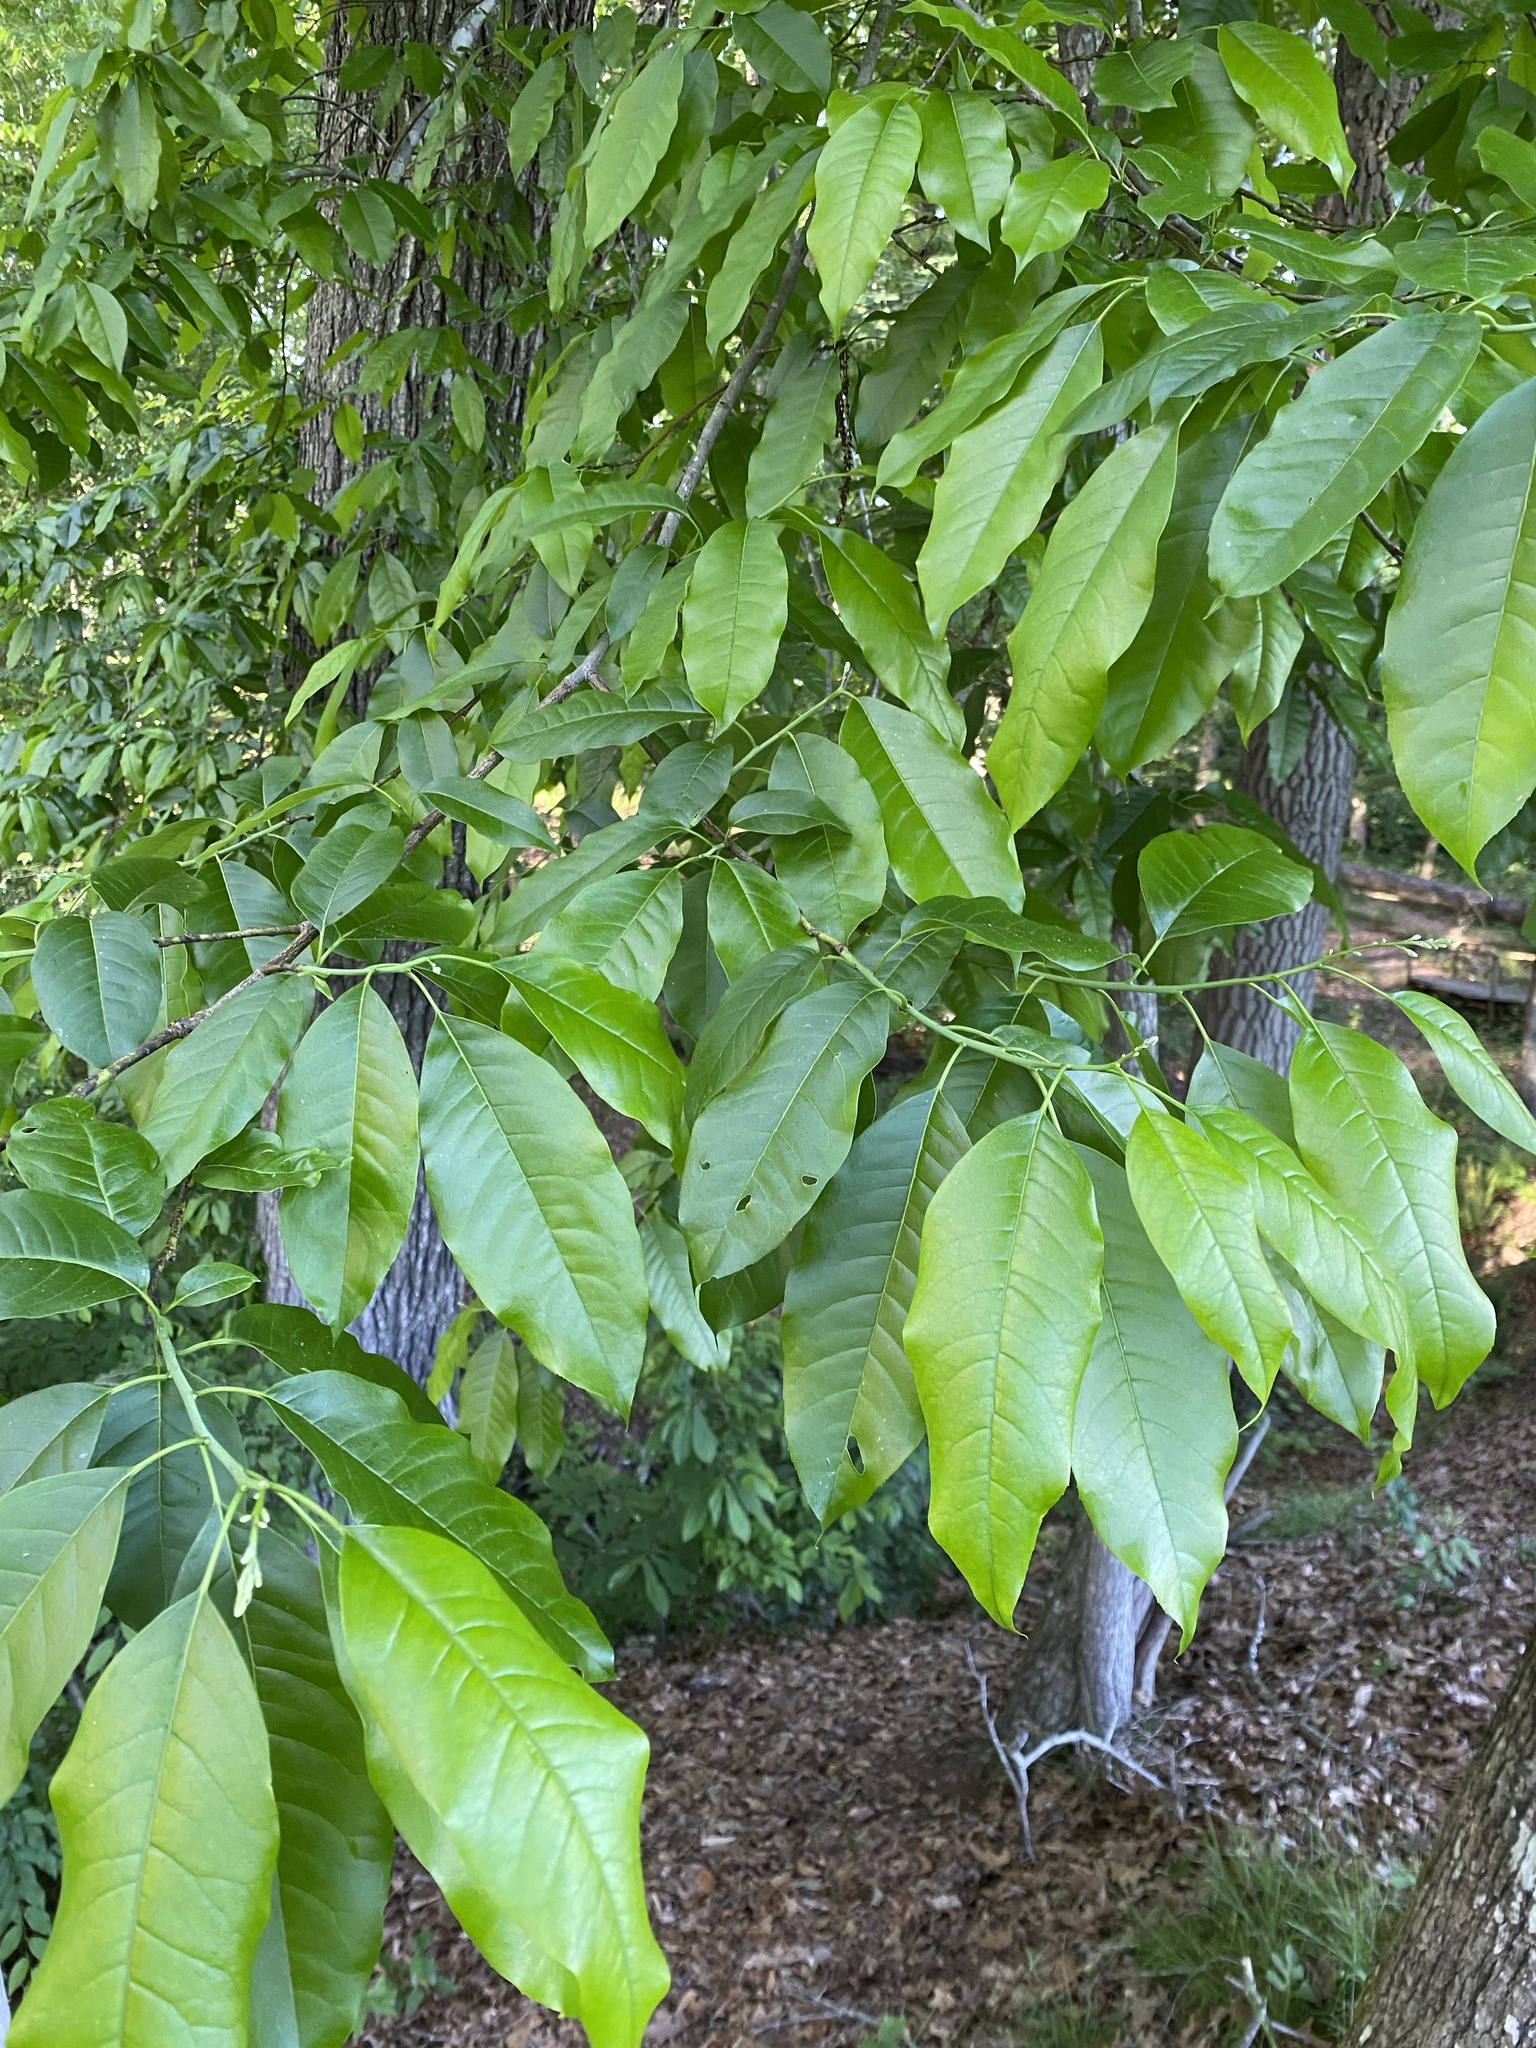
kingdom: Plantae
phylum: Tracheophyta
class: Magnoliopsida
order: Ericales
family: Ericaceae
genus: Oxydendrum
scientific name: Oxydendrum arboreum
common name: Sourwood
